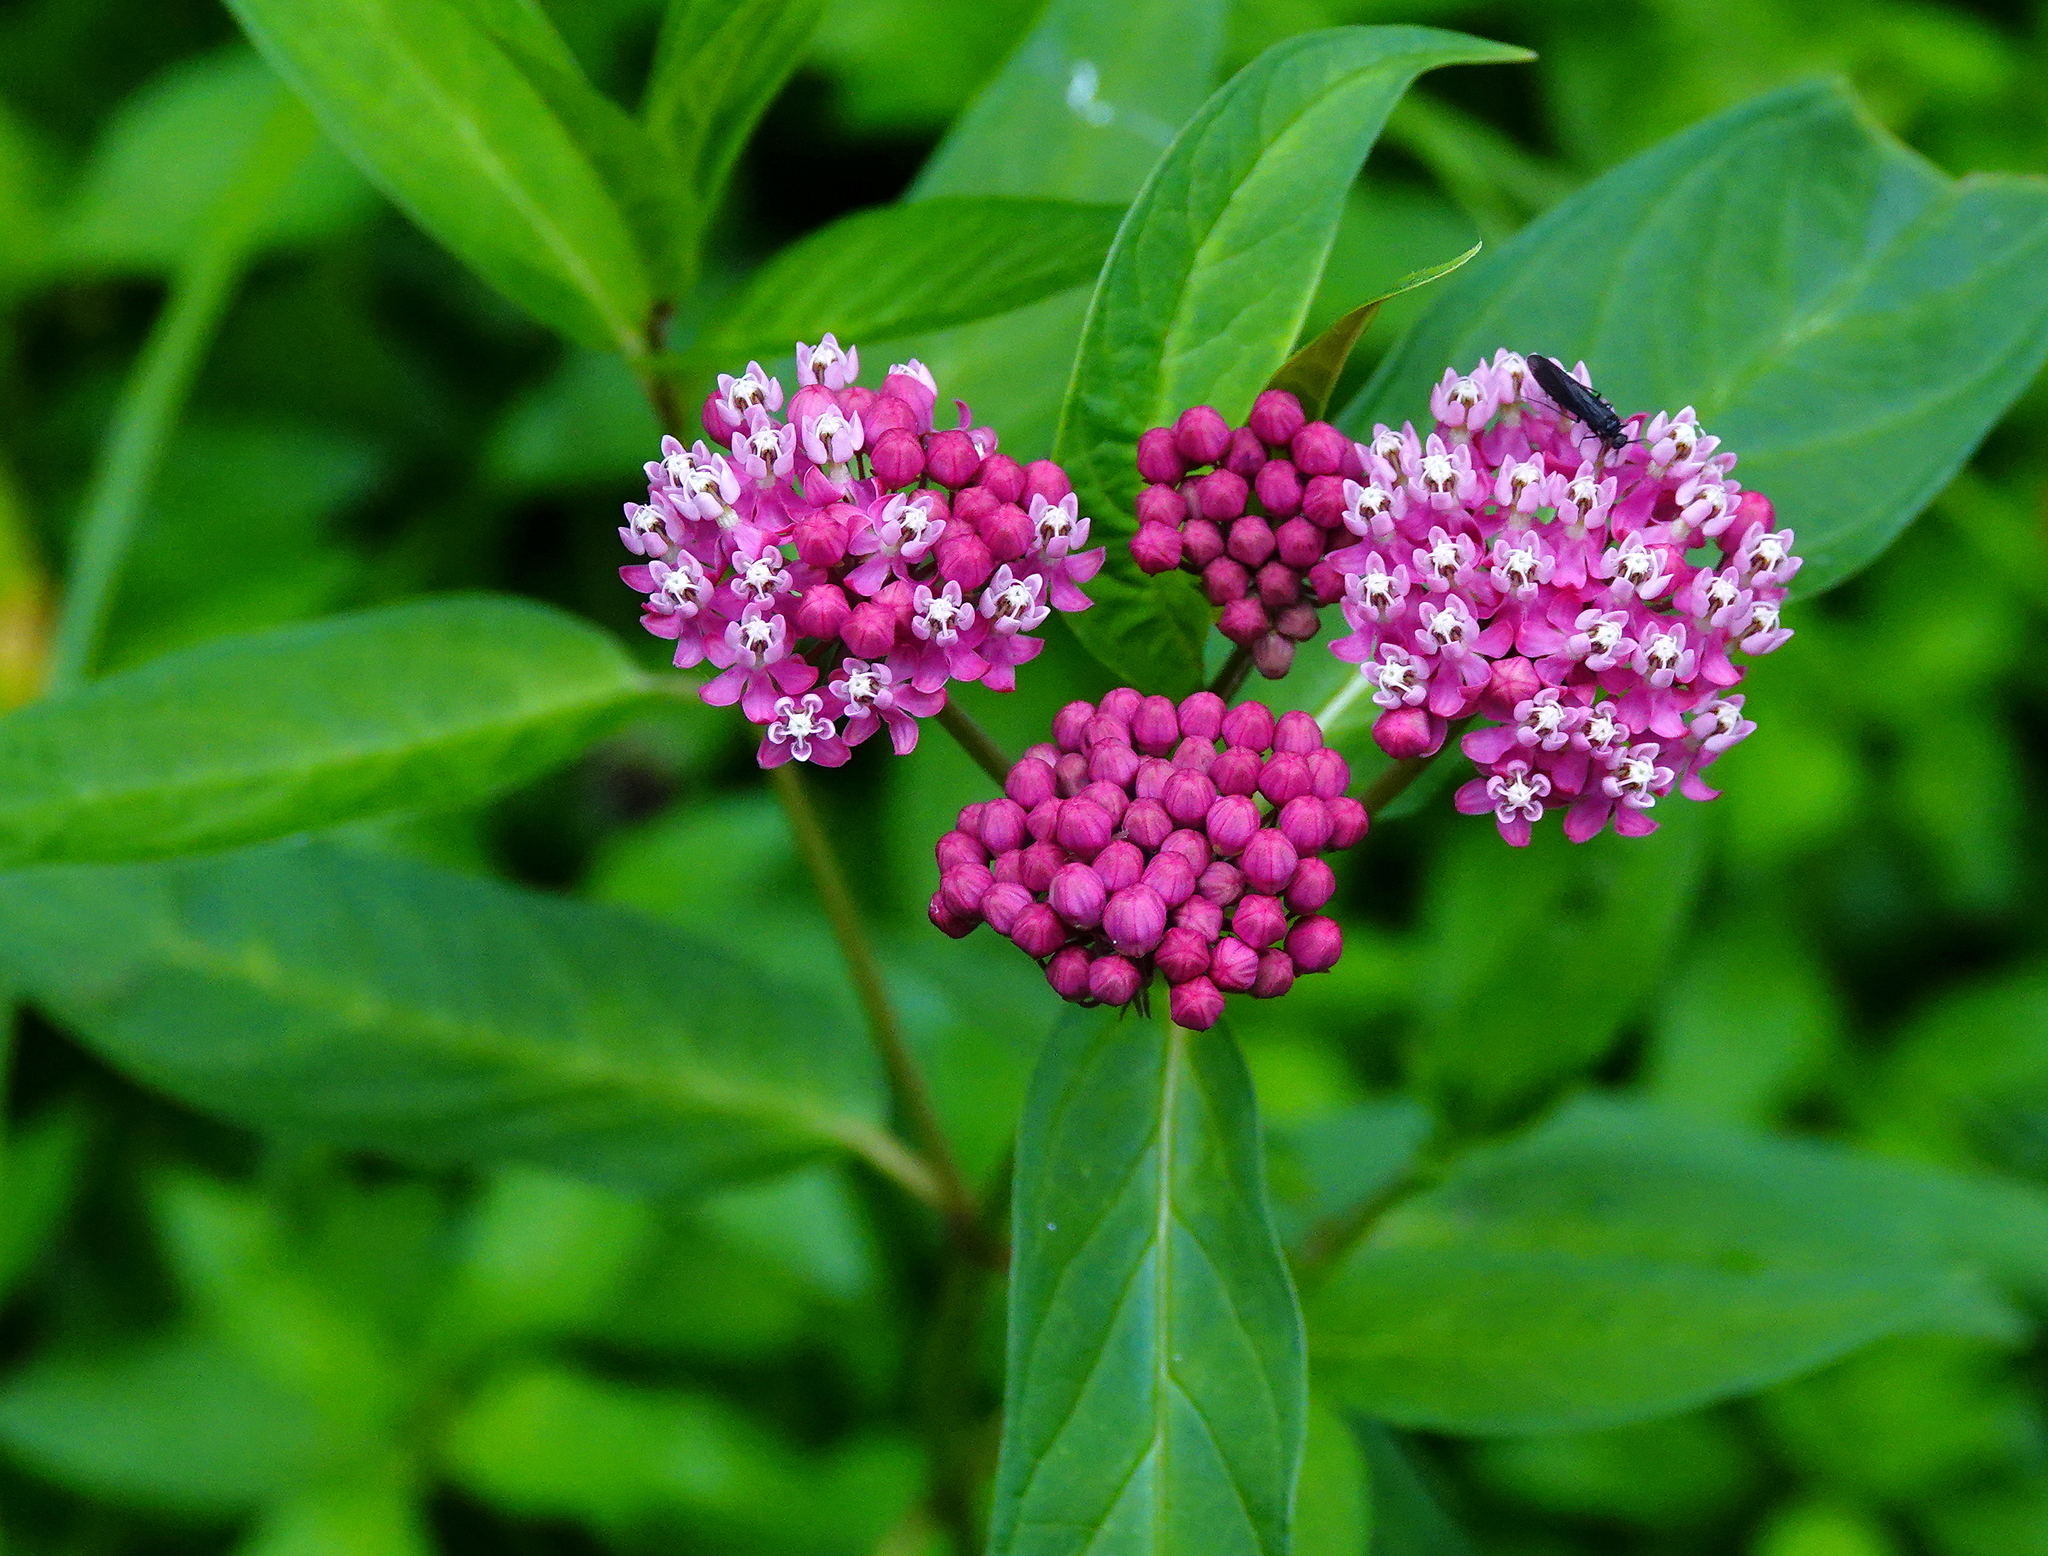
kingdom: Plantae
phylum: Tracheophyta
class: Magnoliopsida
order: Gentianales
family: Apocynaceae
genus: Asclepias
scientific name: Asclepias incarnata
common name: Swamp milkweed
